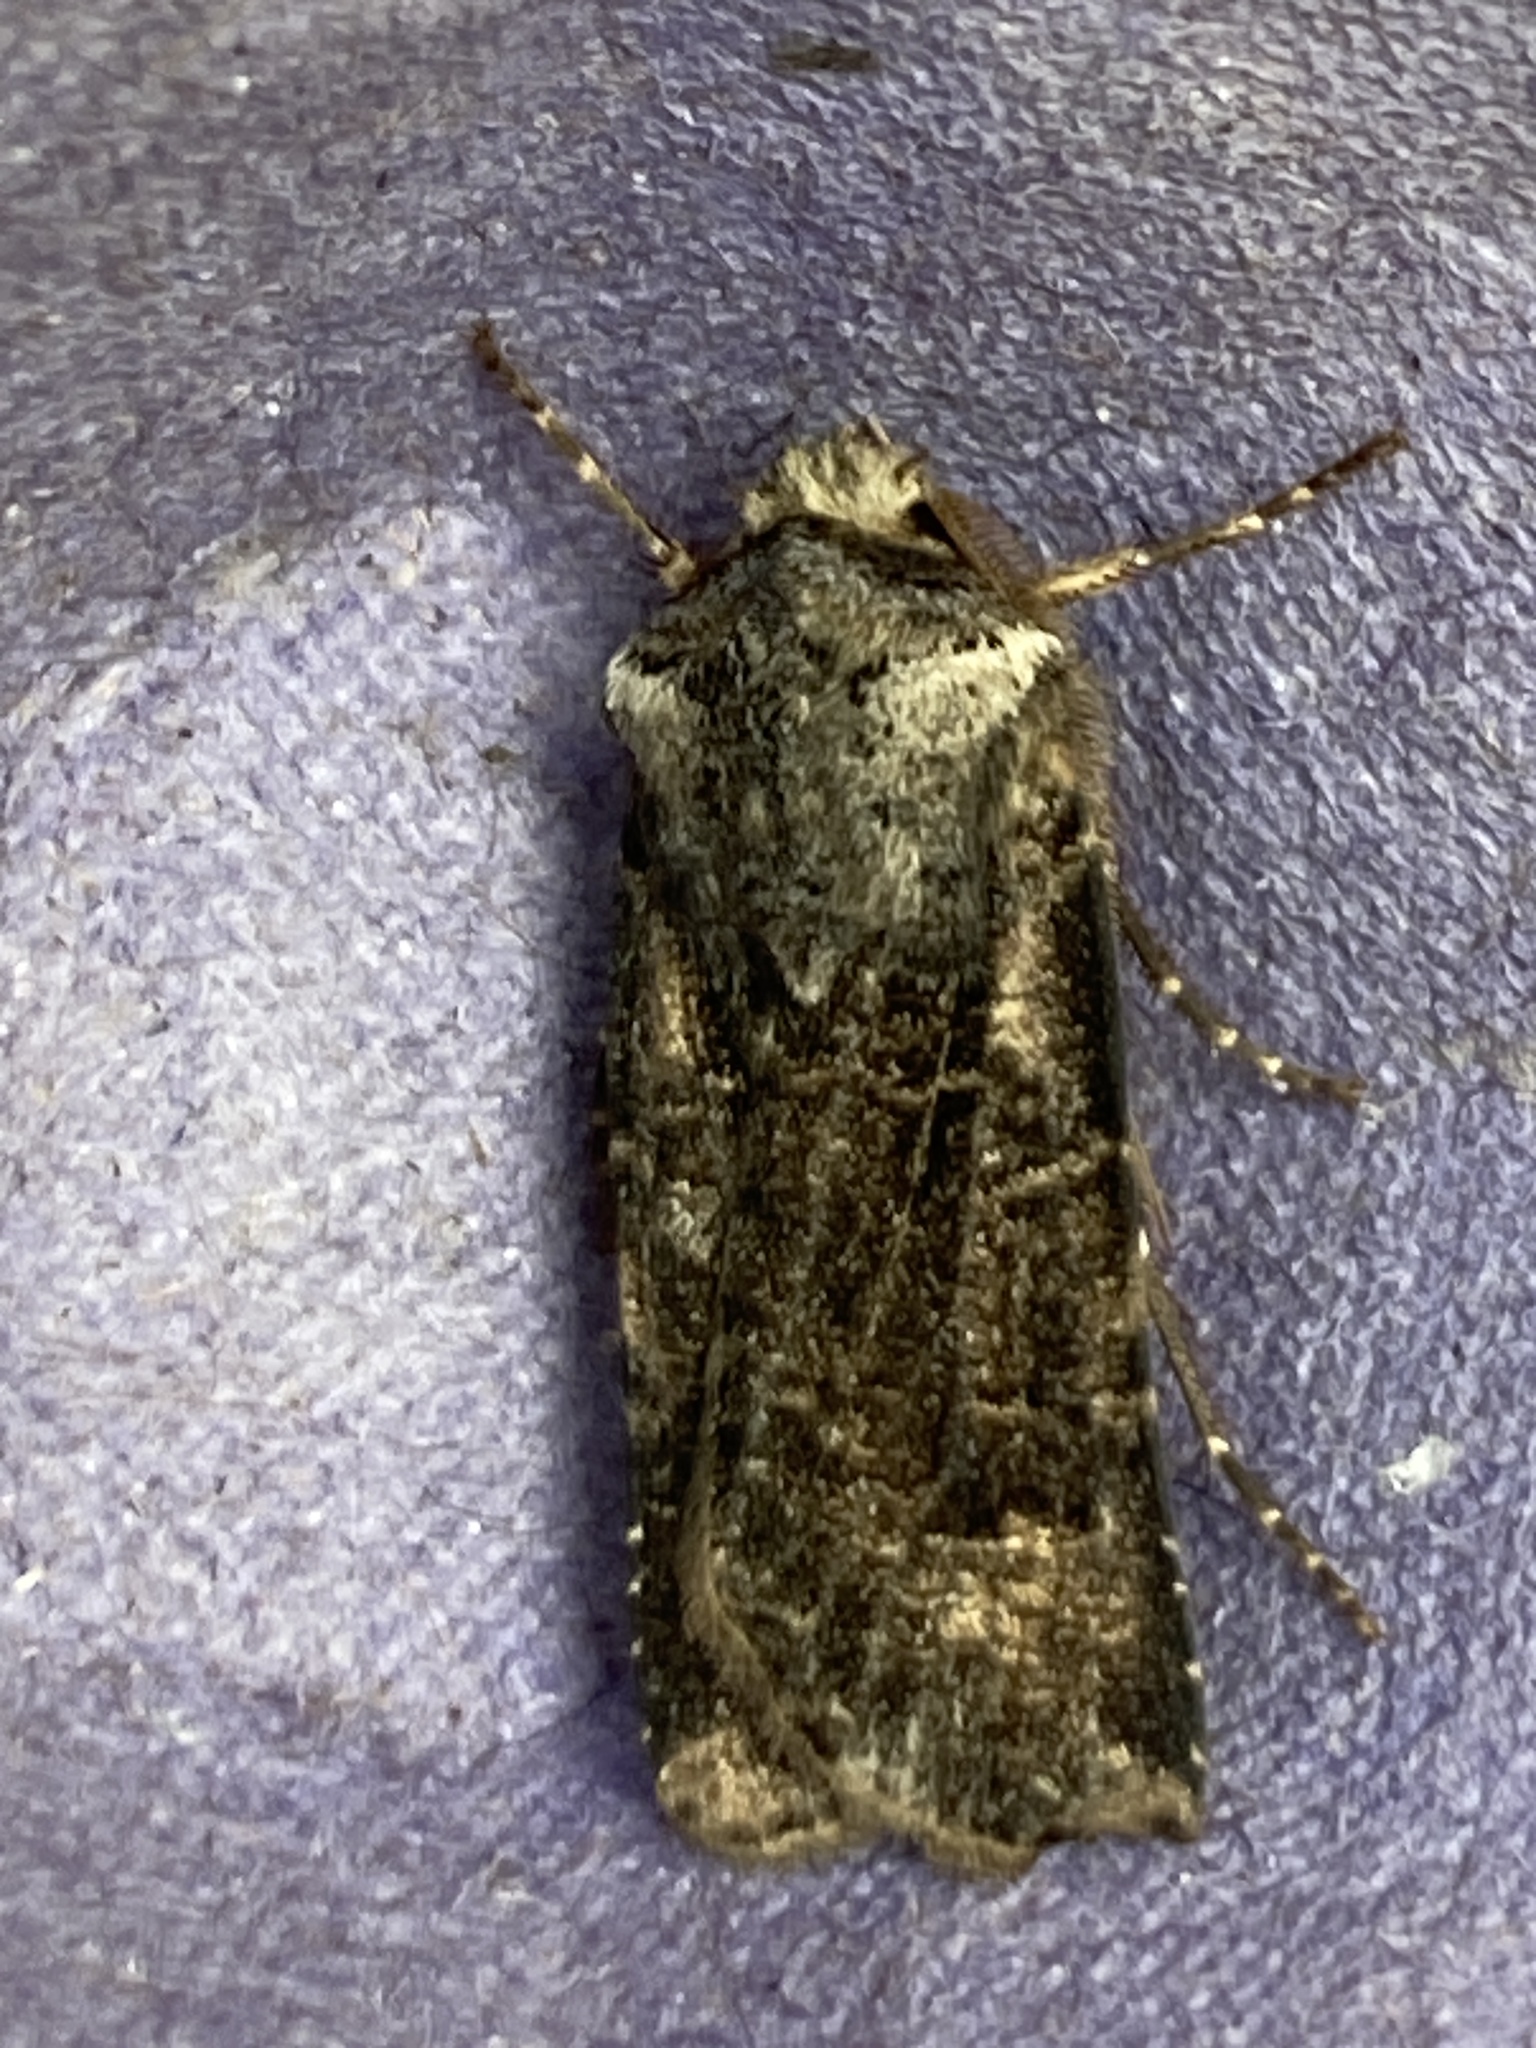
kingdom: Animalia
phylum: Arthropoda
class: Insecta
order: Lepidoptera
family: Noctuidae
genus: Agrotis
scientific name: Agrotis clavis
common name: Heart and club
